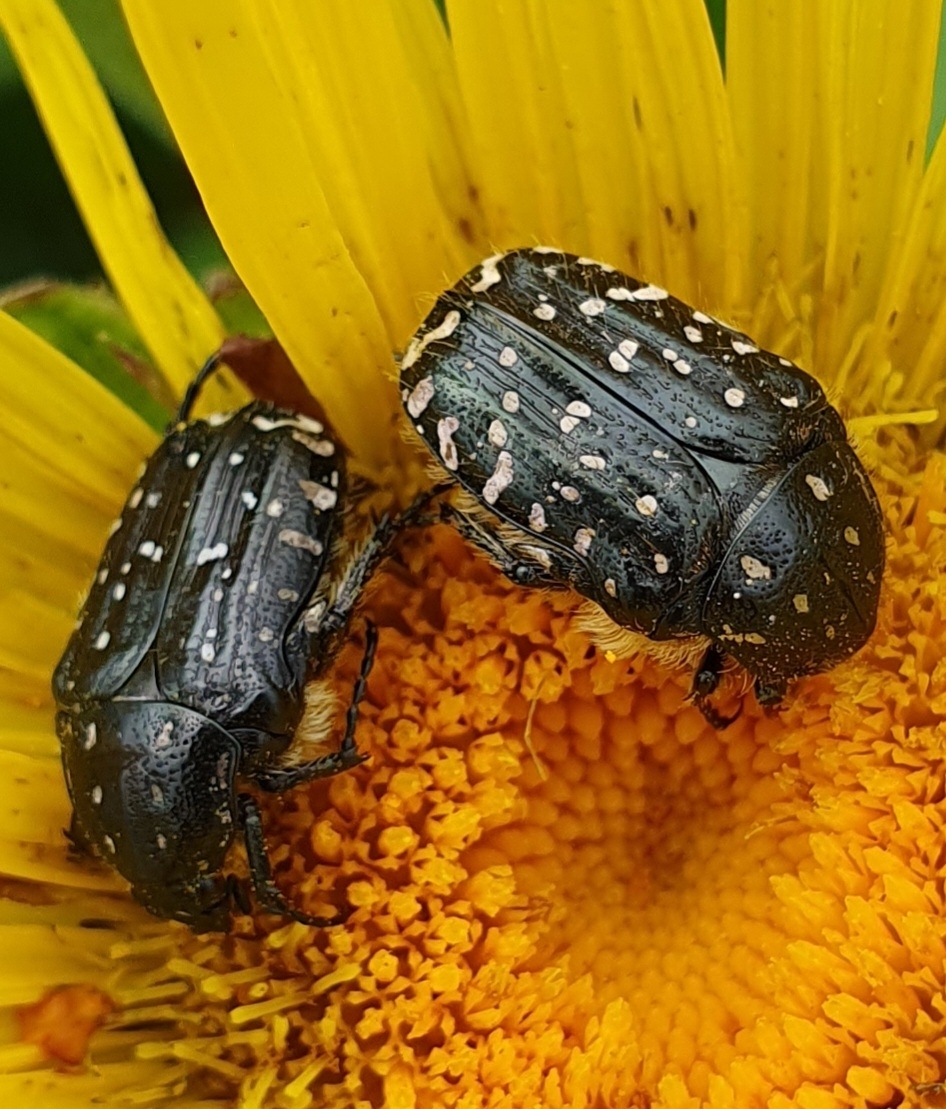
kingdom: Animalia
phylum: Arthropoda
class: Insecta
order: Coleoptera
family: Scarabaeidae
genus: Oxythyrea
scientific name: Oxythyrea funesta
